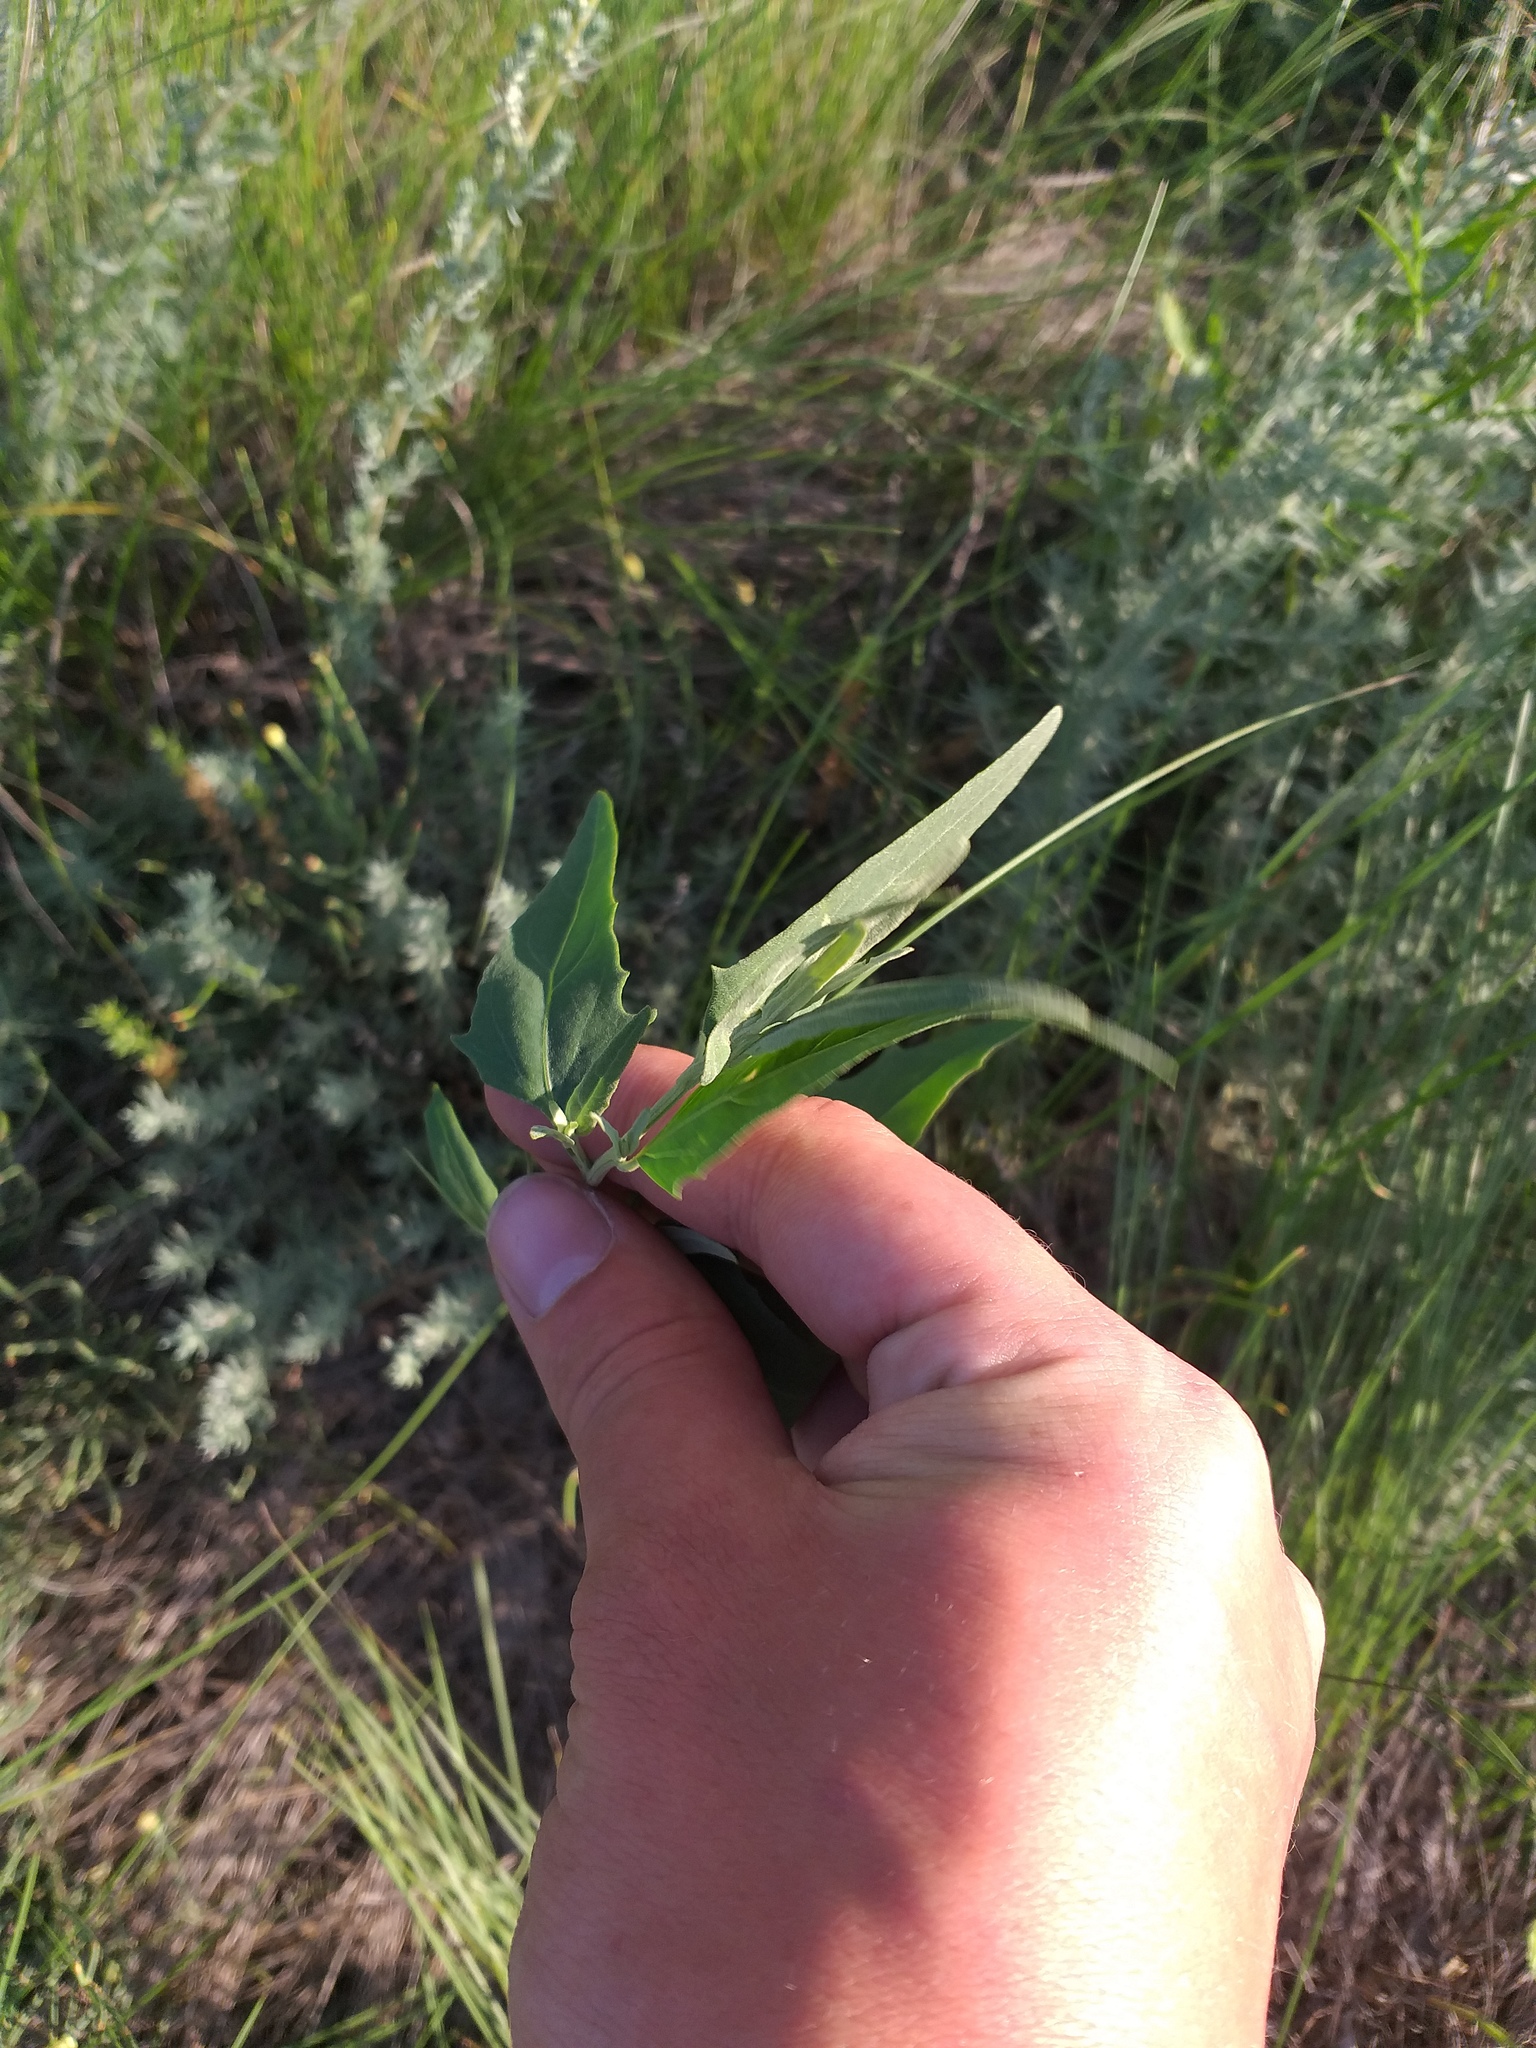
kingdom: Plantae
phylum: Tracheophyta
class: Magnoliopsida
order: Caryophyllales
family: Amaranthaceae
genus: Atriplex
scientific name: Atriplex oblongifolia
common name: Oblongleaf orache
